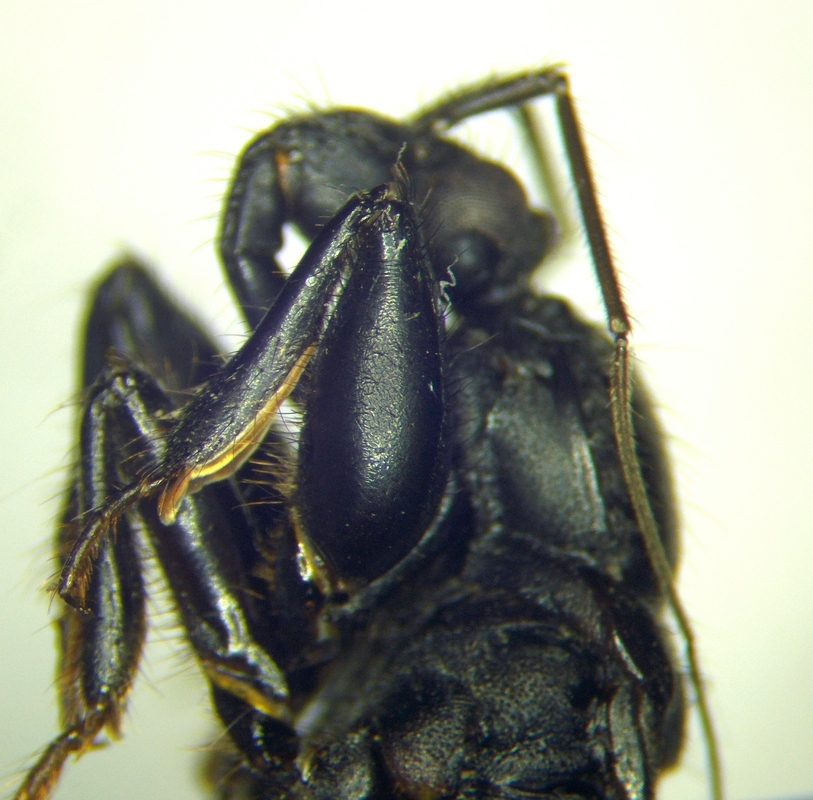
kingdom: Animalia
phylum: Arthropoda
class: Insecta
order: Hemiptera
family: Reduviidae
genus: Ectomocoris
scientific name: Ectomocoris caucasicus
